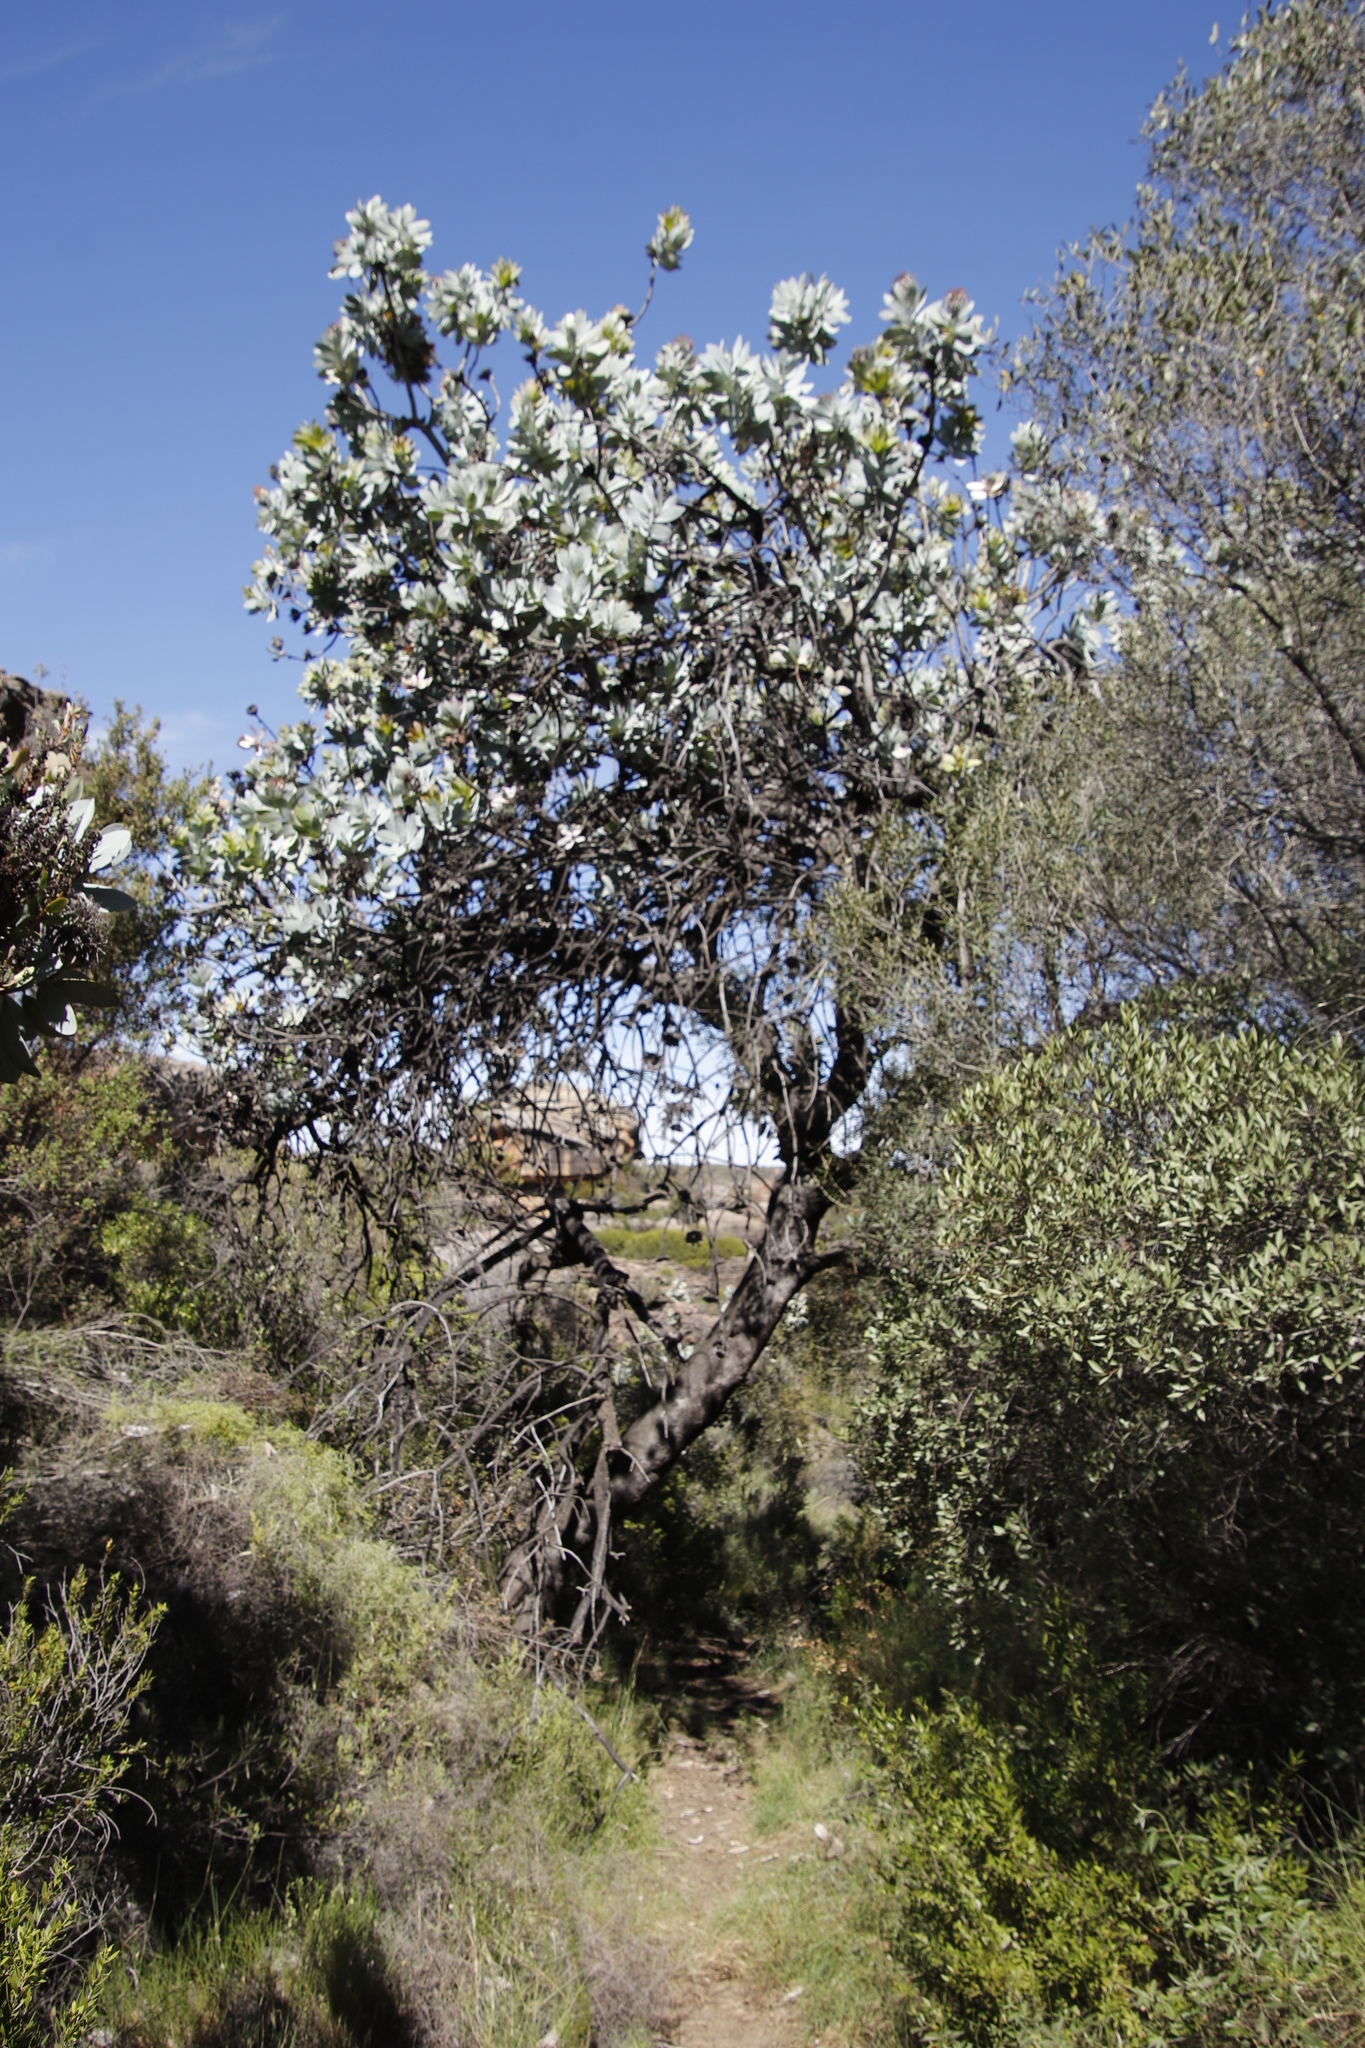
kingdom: Plantae
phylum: Tracheophyta
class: Magnoliopsida
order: Proteales
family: Proteaceae
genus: Protea
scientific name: Protea nitida
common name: Tree protea
